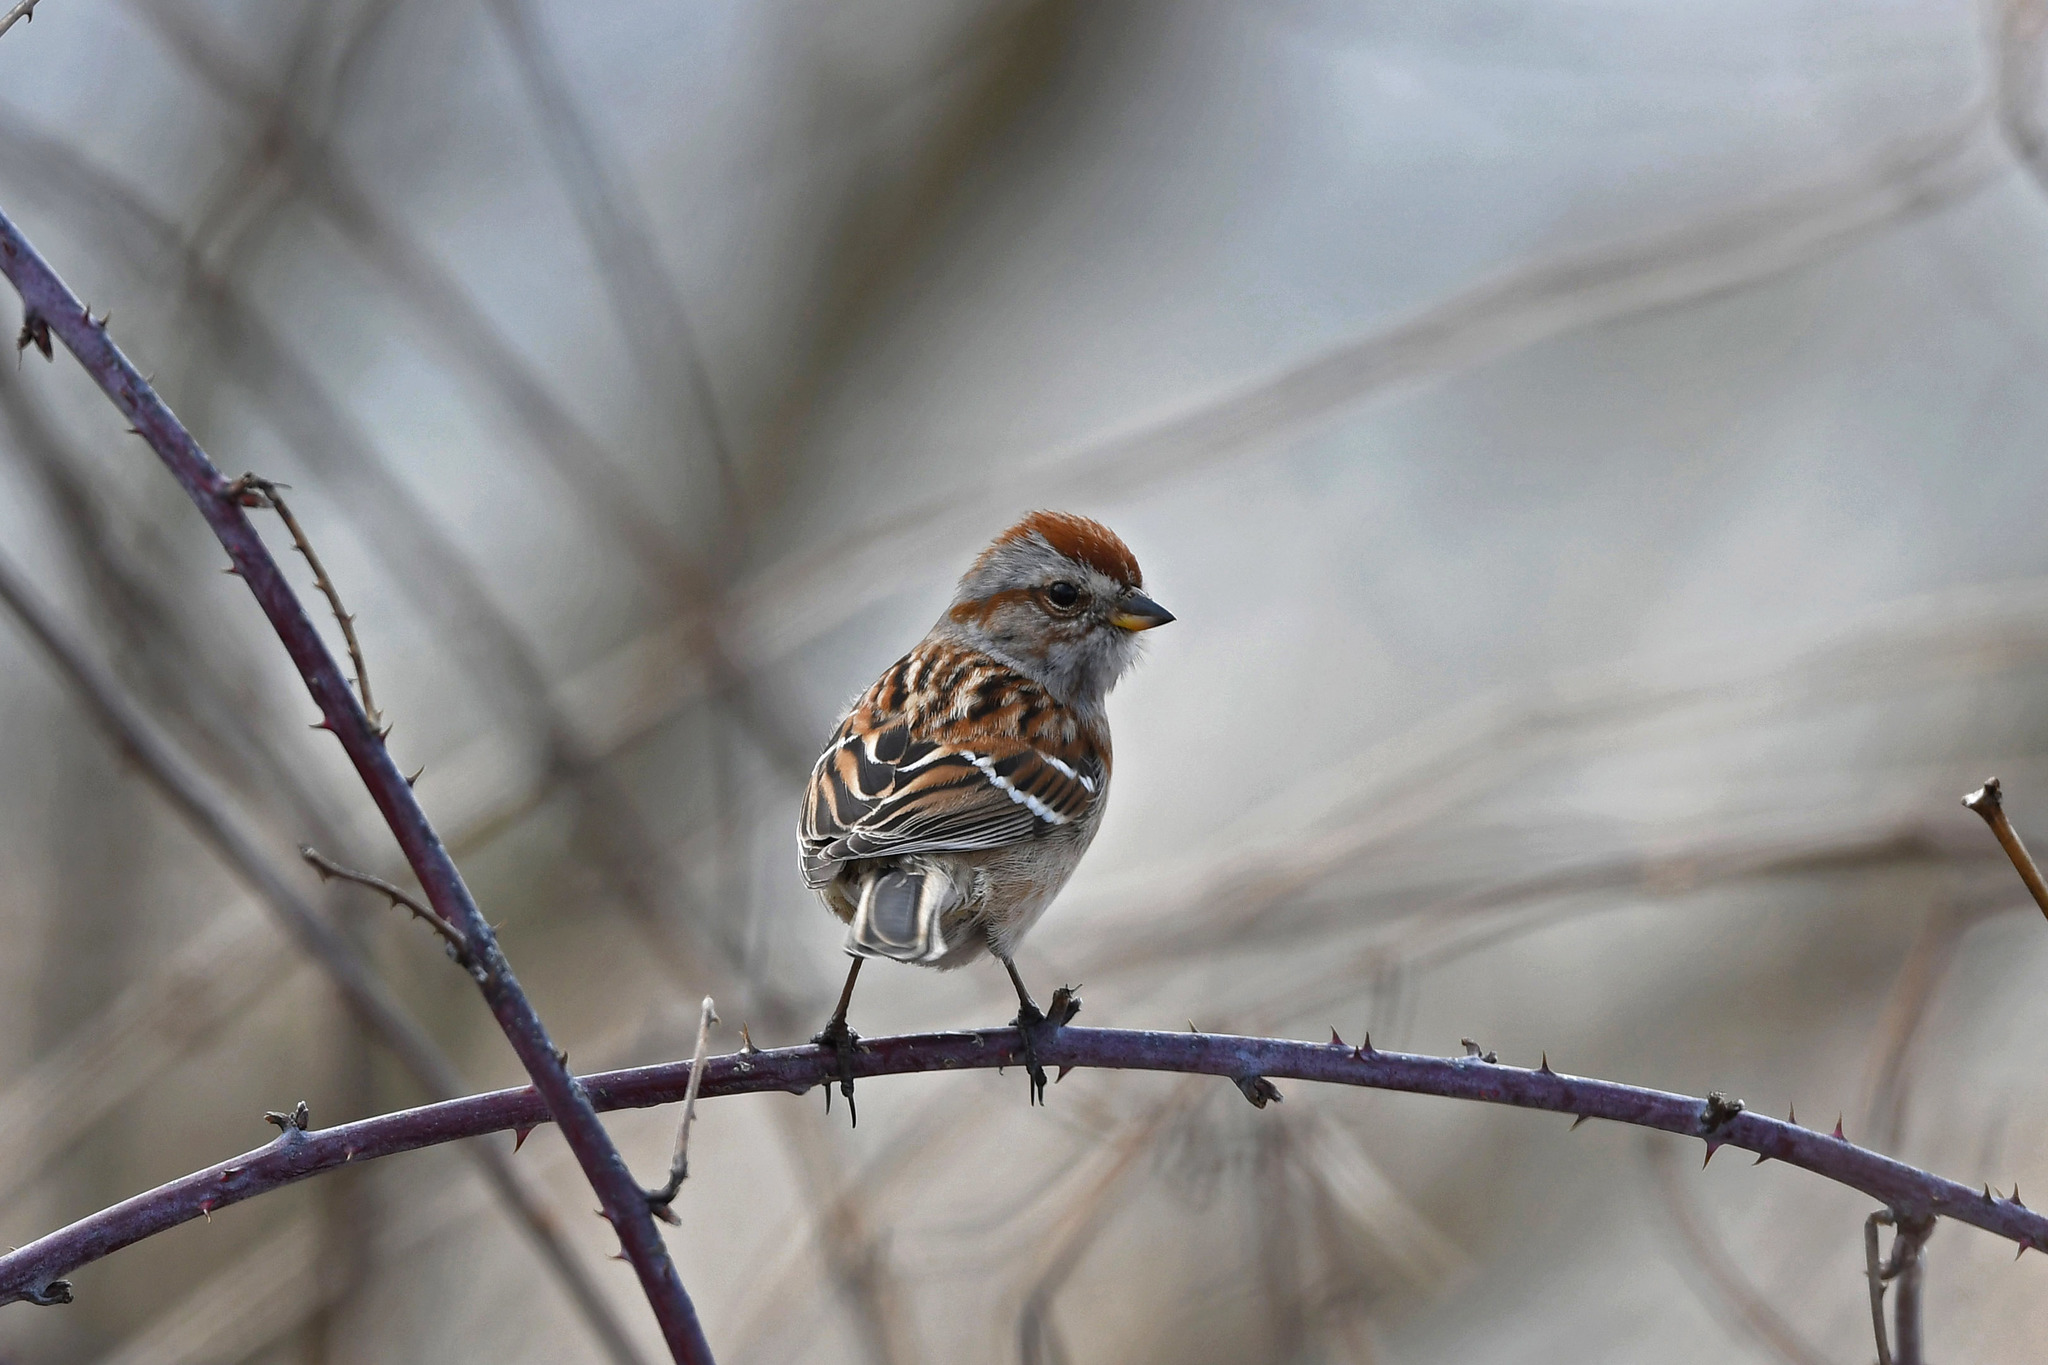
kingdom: Animalia
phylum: Chordata
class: Aves
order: Passeriformes
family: Passerellidae
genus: Spizelloides
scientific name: Spizelloides arborea
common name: American tree sparrow
